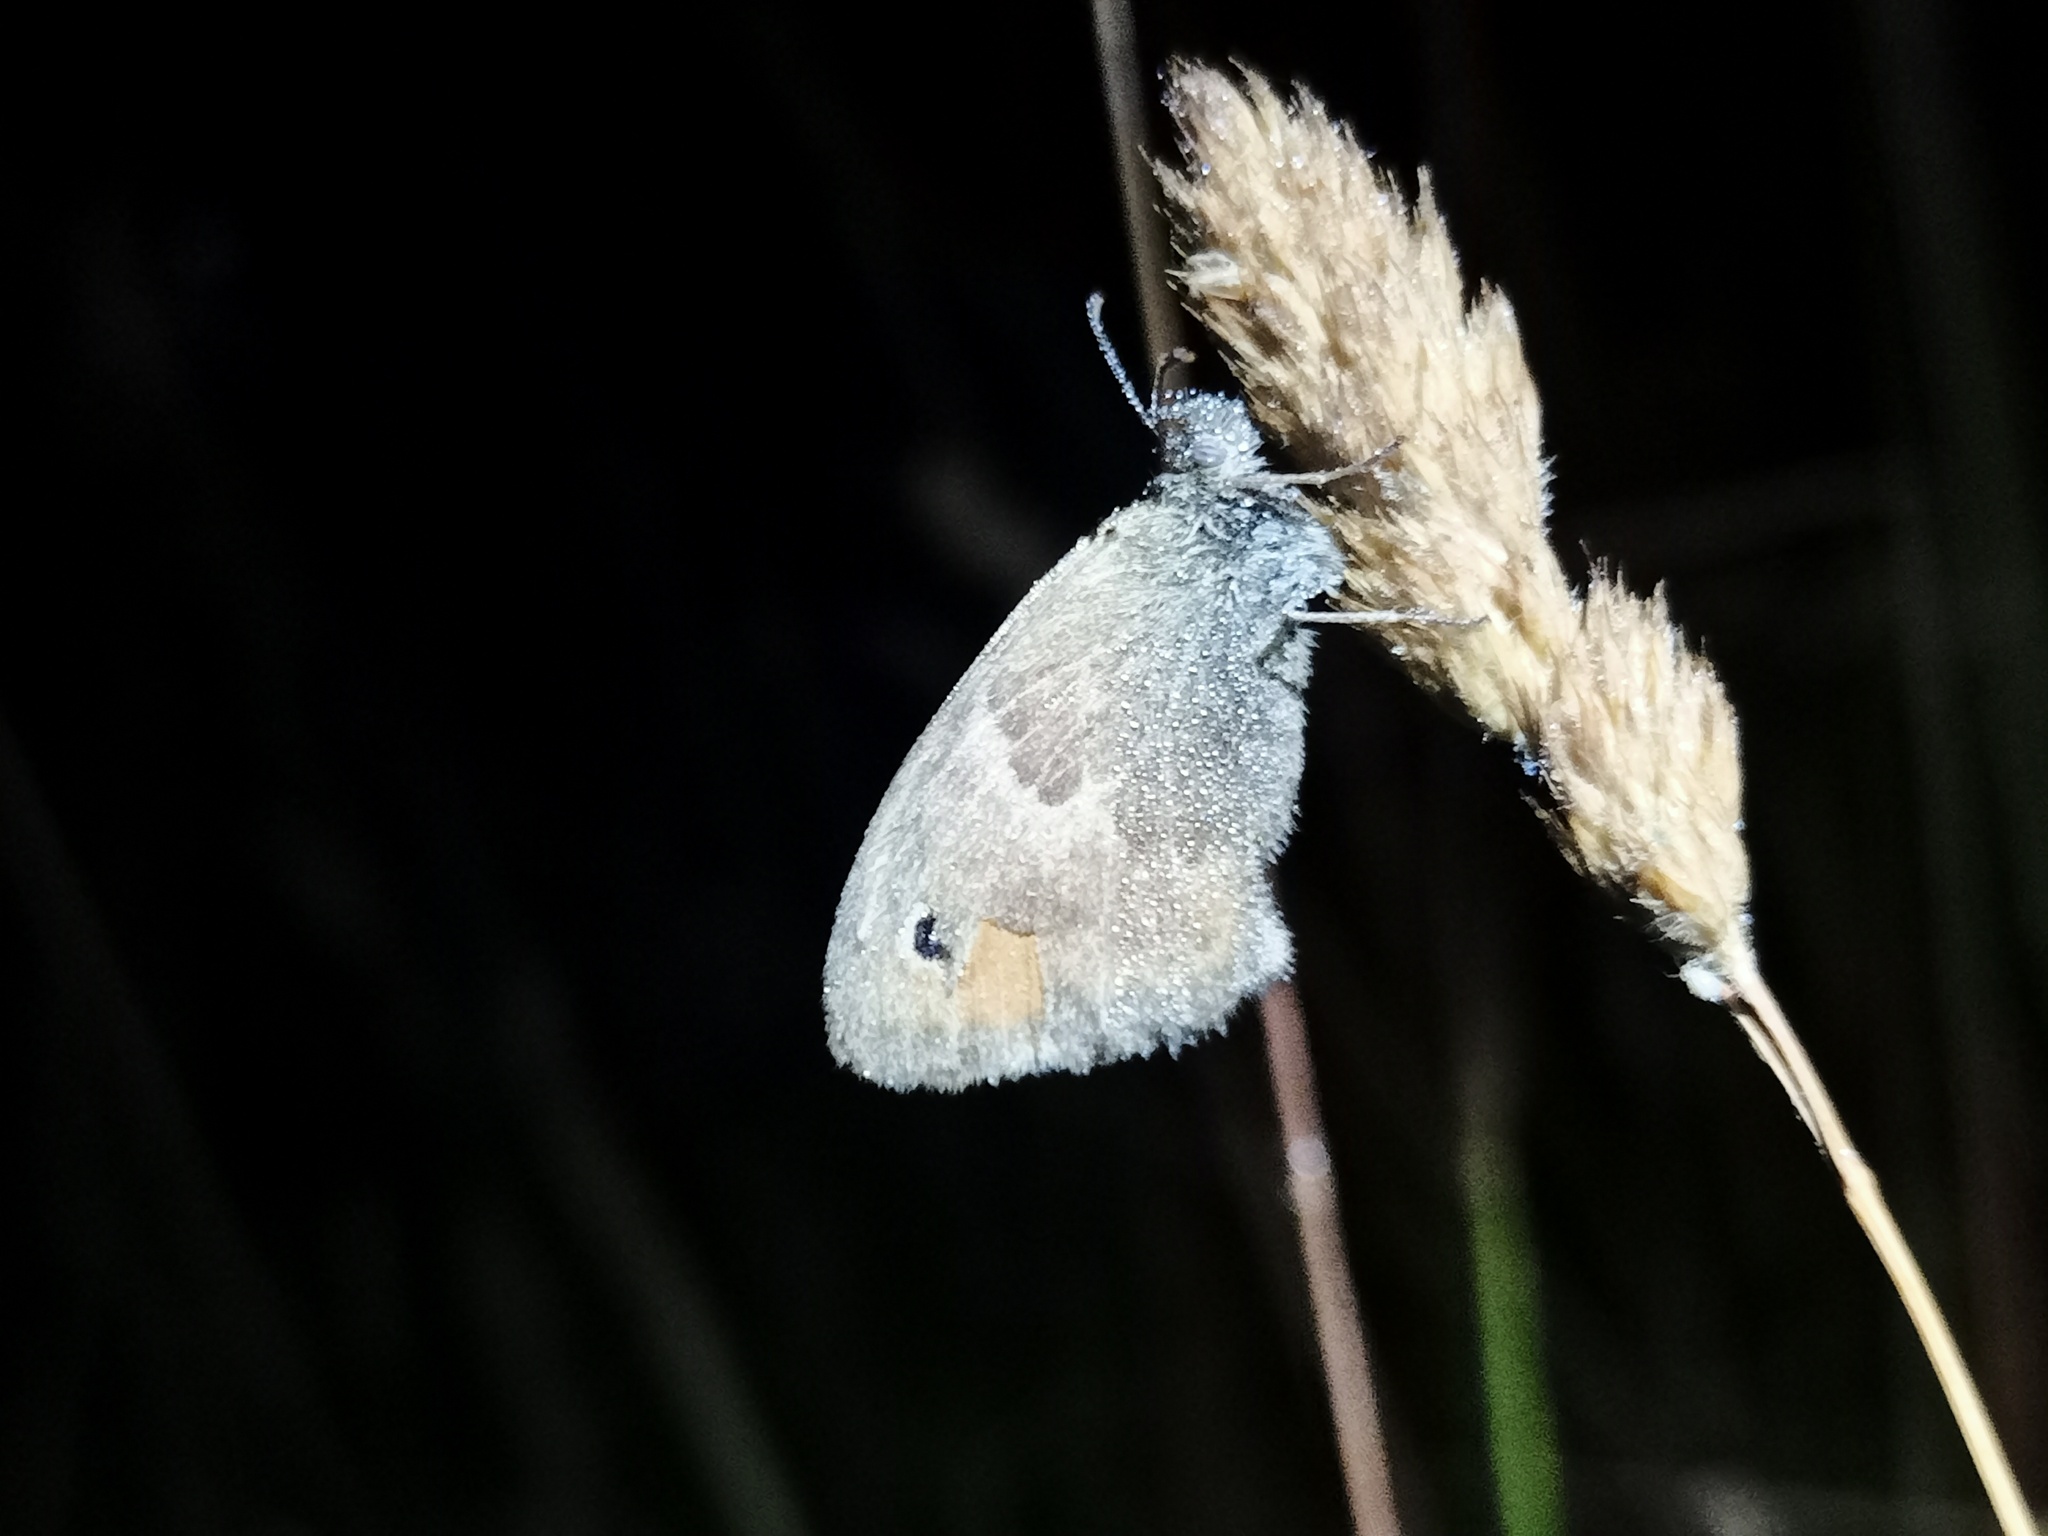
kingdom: Animalia
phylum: Arthropoda
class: Insecta
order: Lepidoptera
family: Nymphalidae
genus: Coenonympha
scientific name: Coenonympha pamphilus
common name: Small heath
